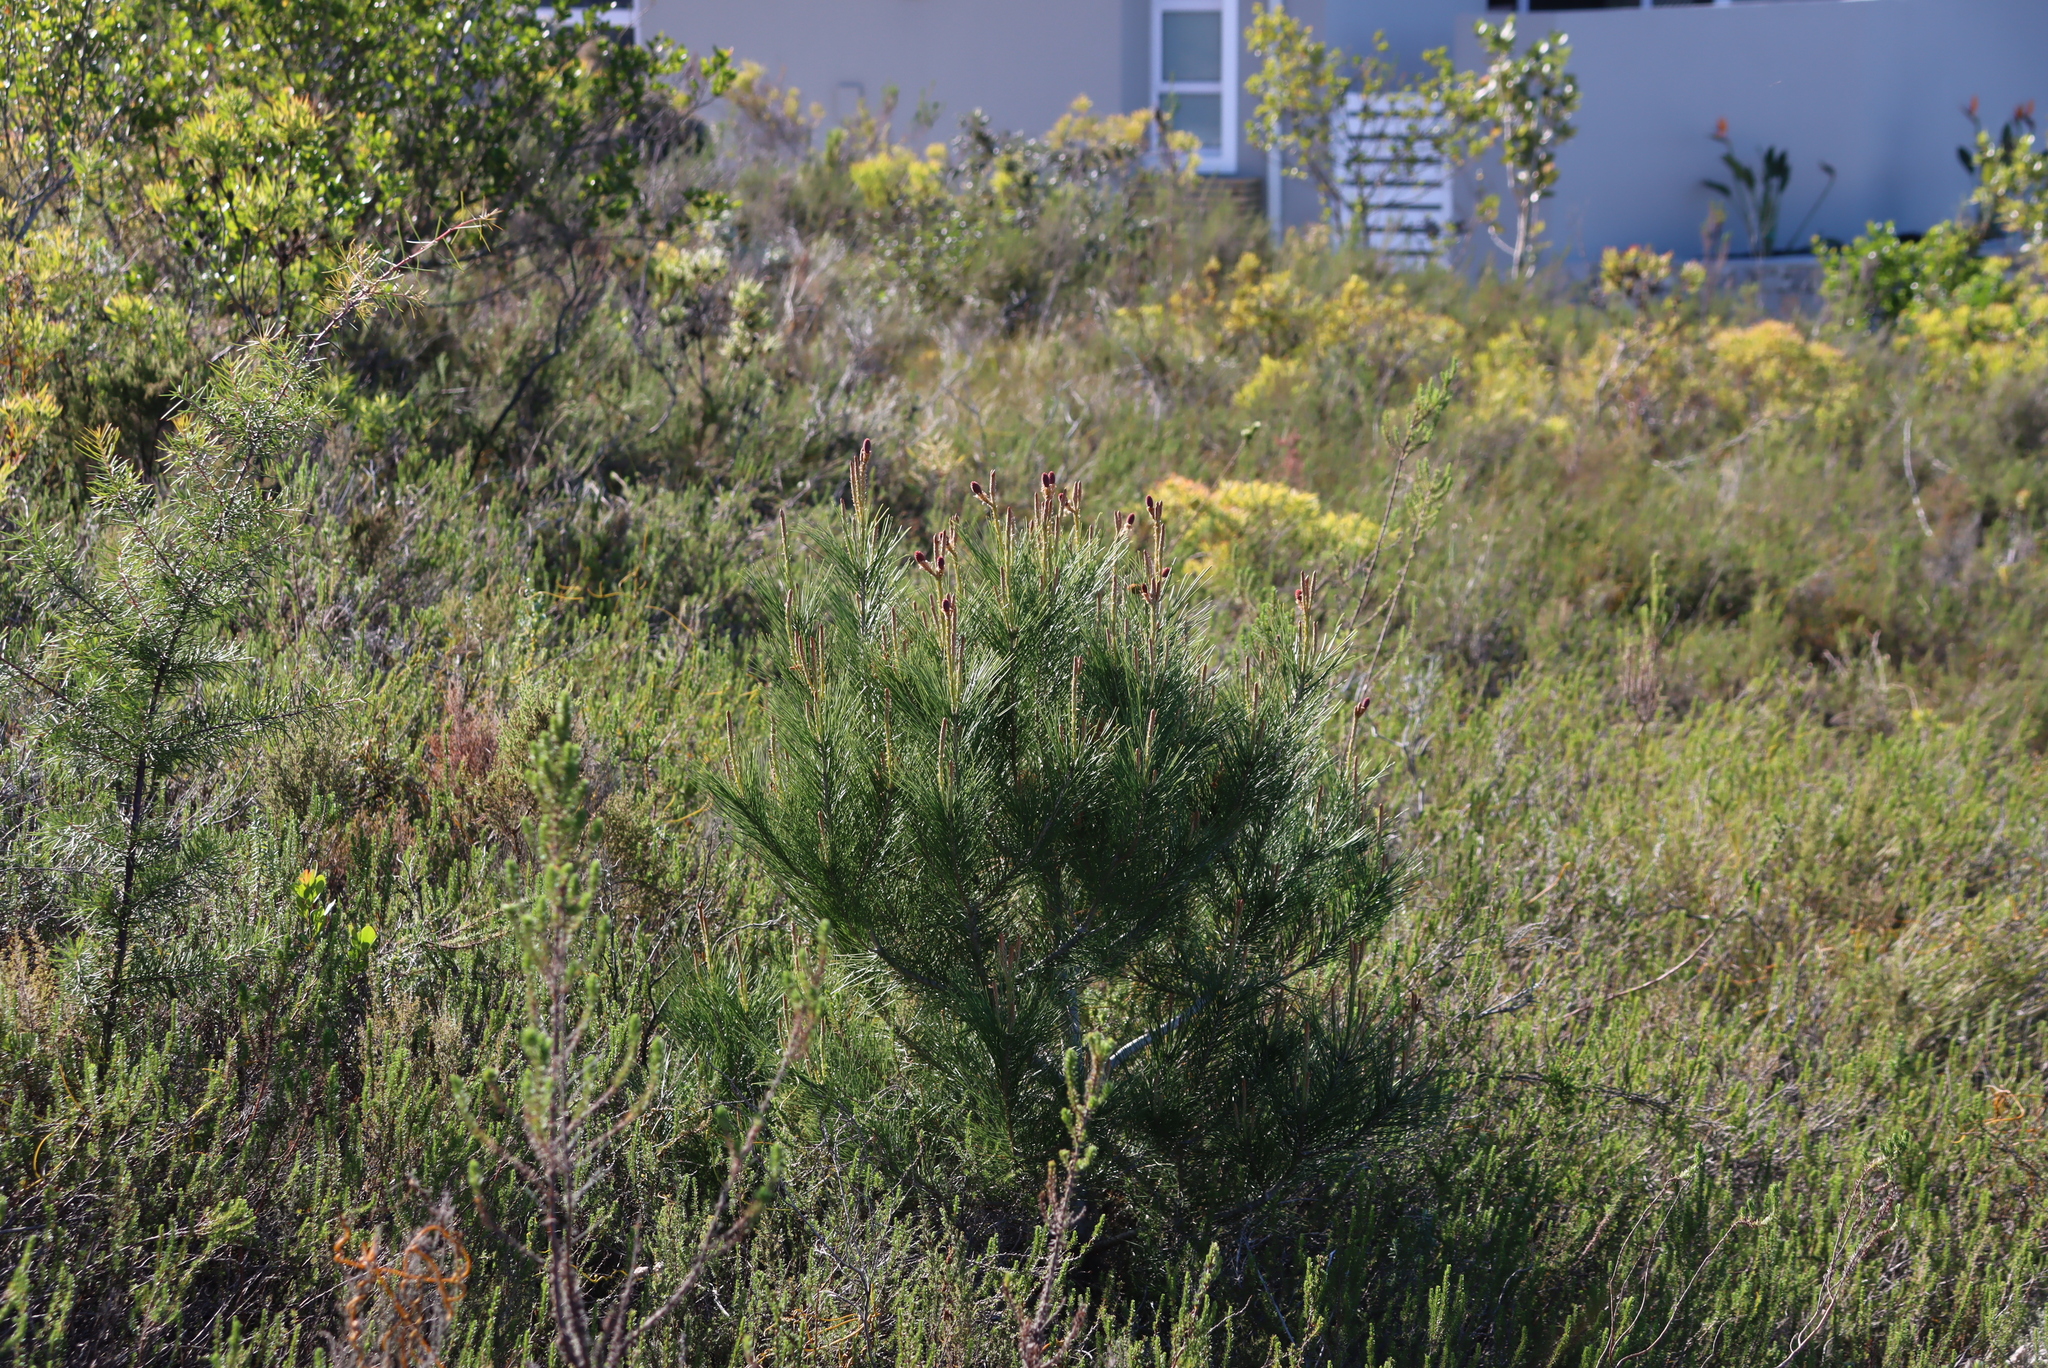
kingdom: Plantae
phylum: Tracheophyta
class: Pinopsida
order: Pinales
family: Pinaceae
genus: Pinus
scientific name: Pinus radiata
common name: Monterey pine
